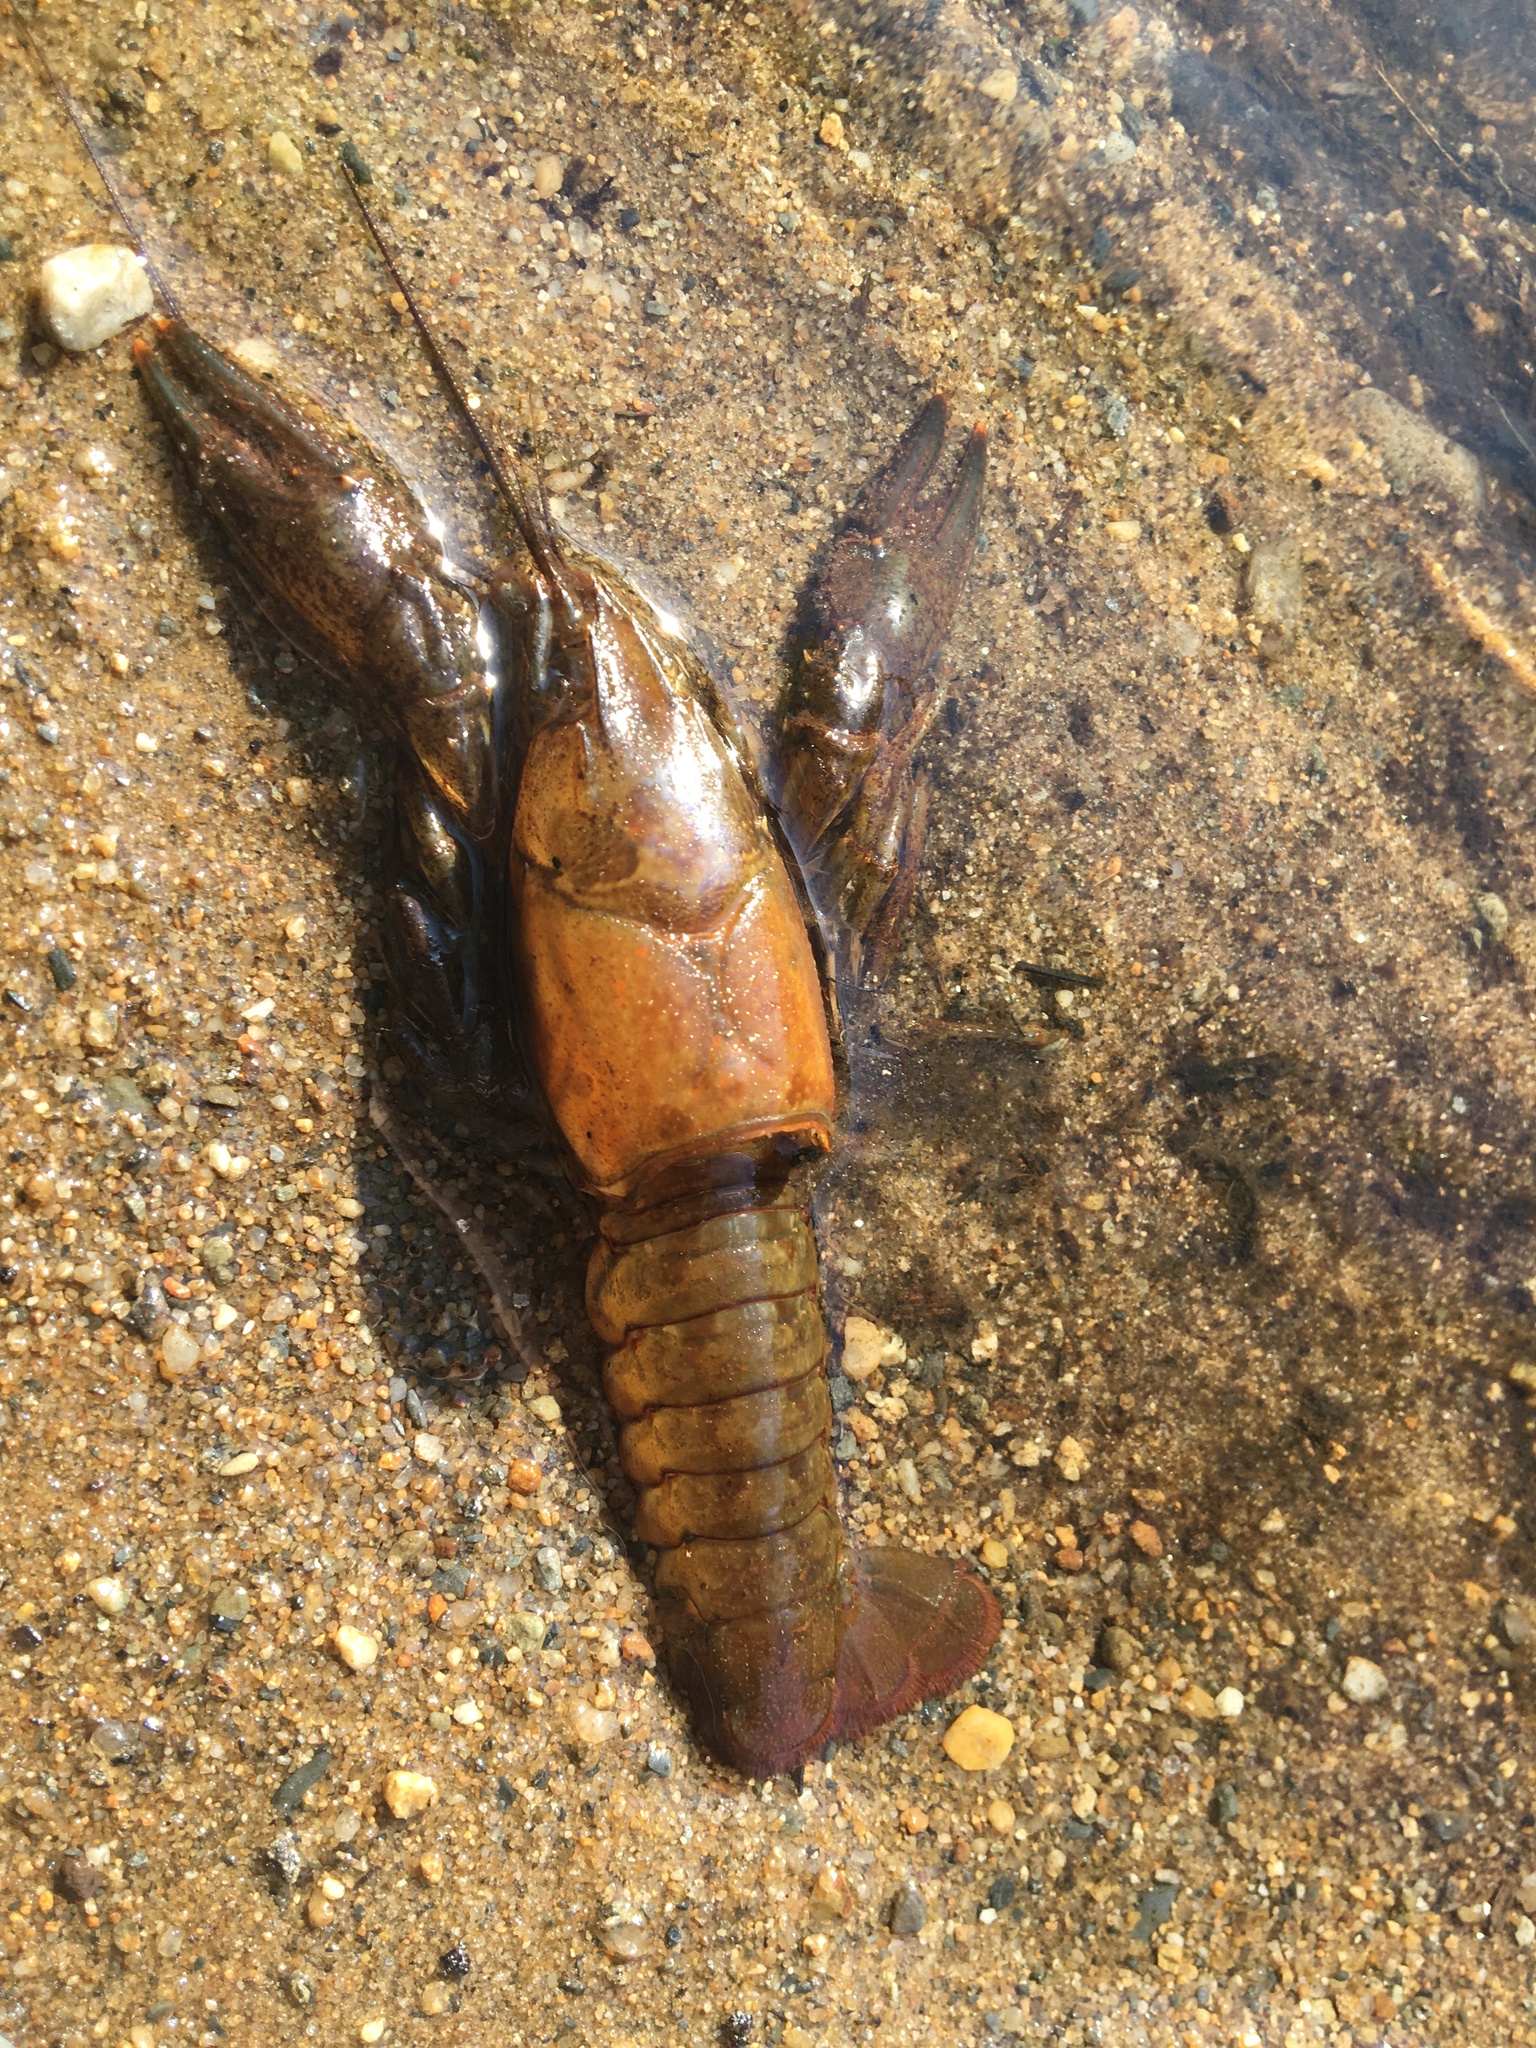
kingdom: Animalia
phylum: Arthropoda
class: Malacostraca
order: Decapoda
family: Cambaridae
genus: Faxonius
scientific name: Faxonius virilis
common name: Virile crayfish
